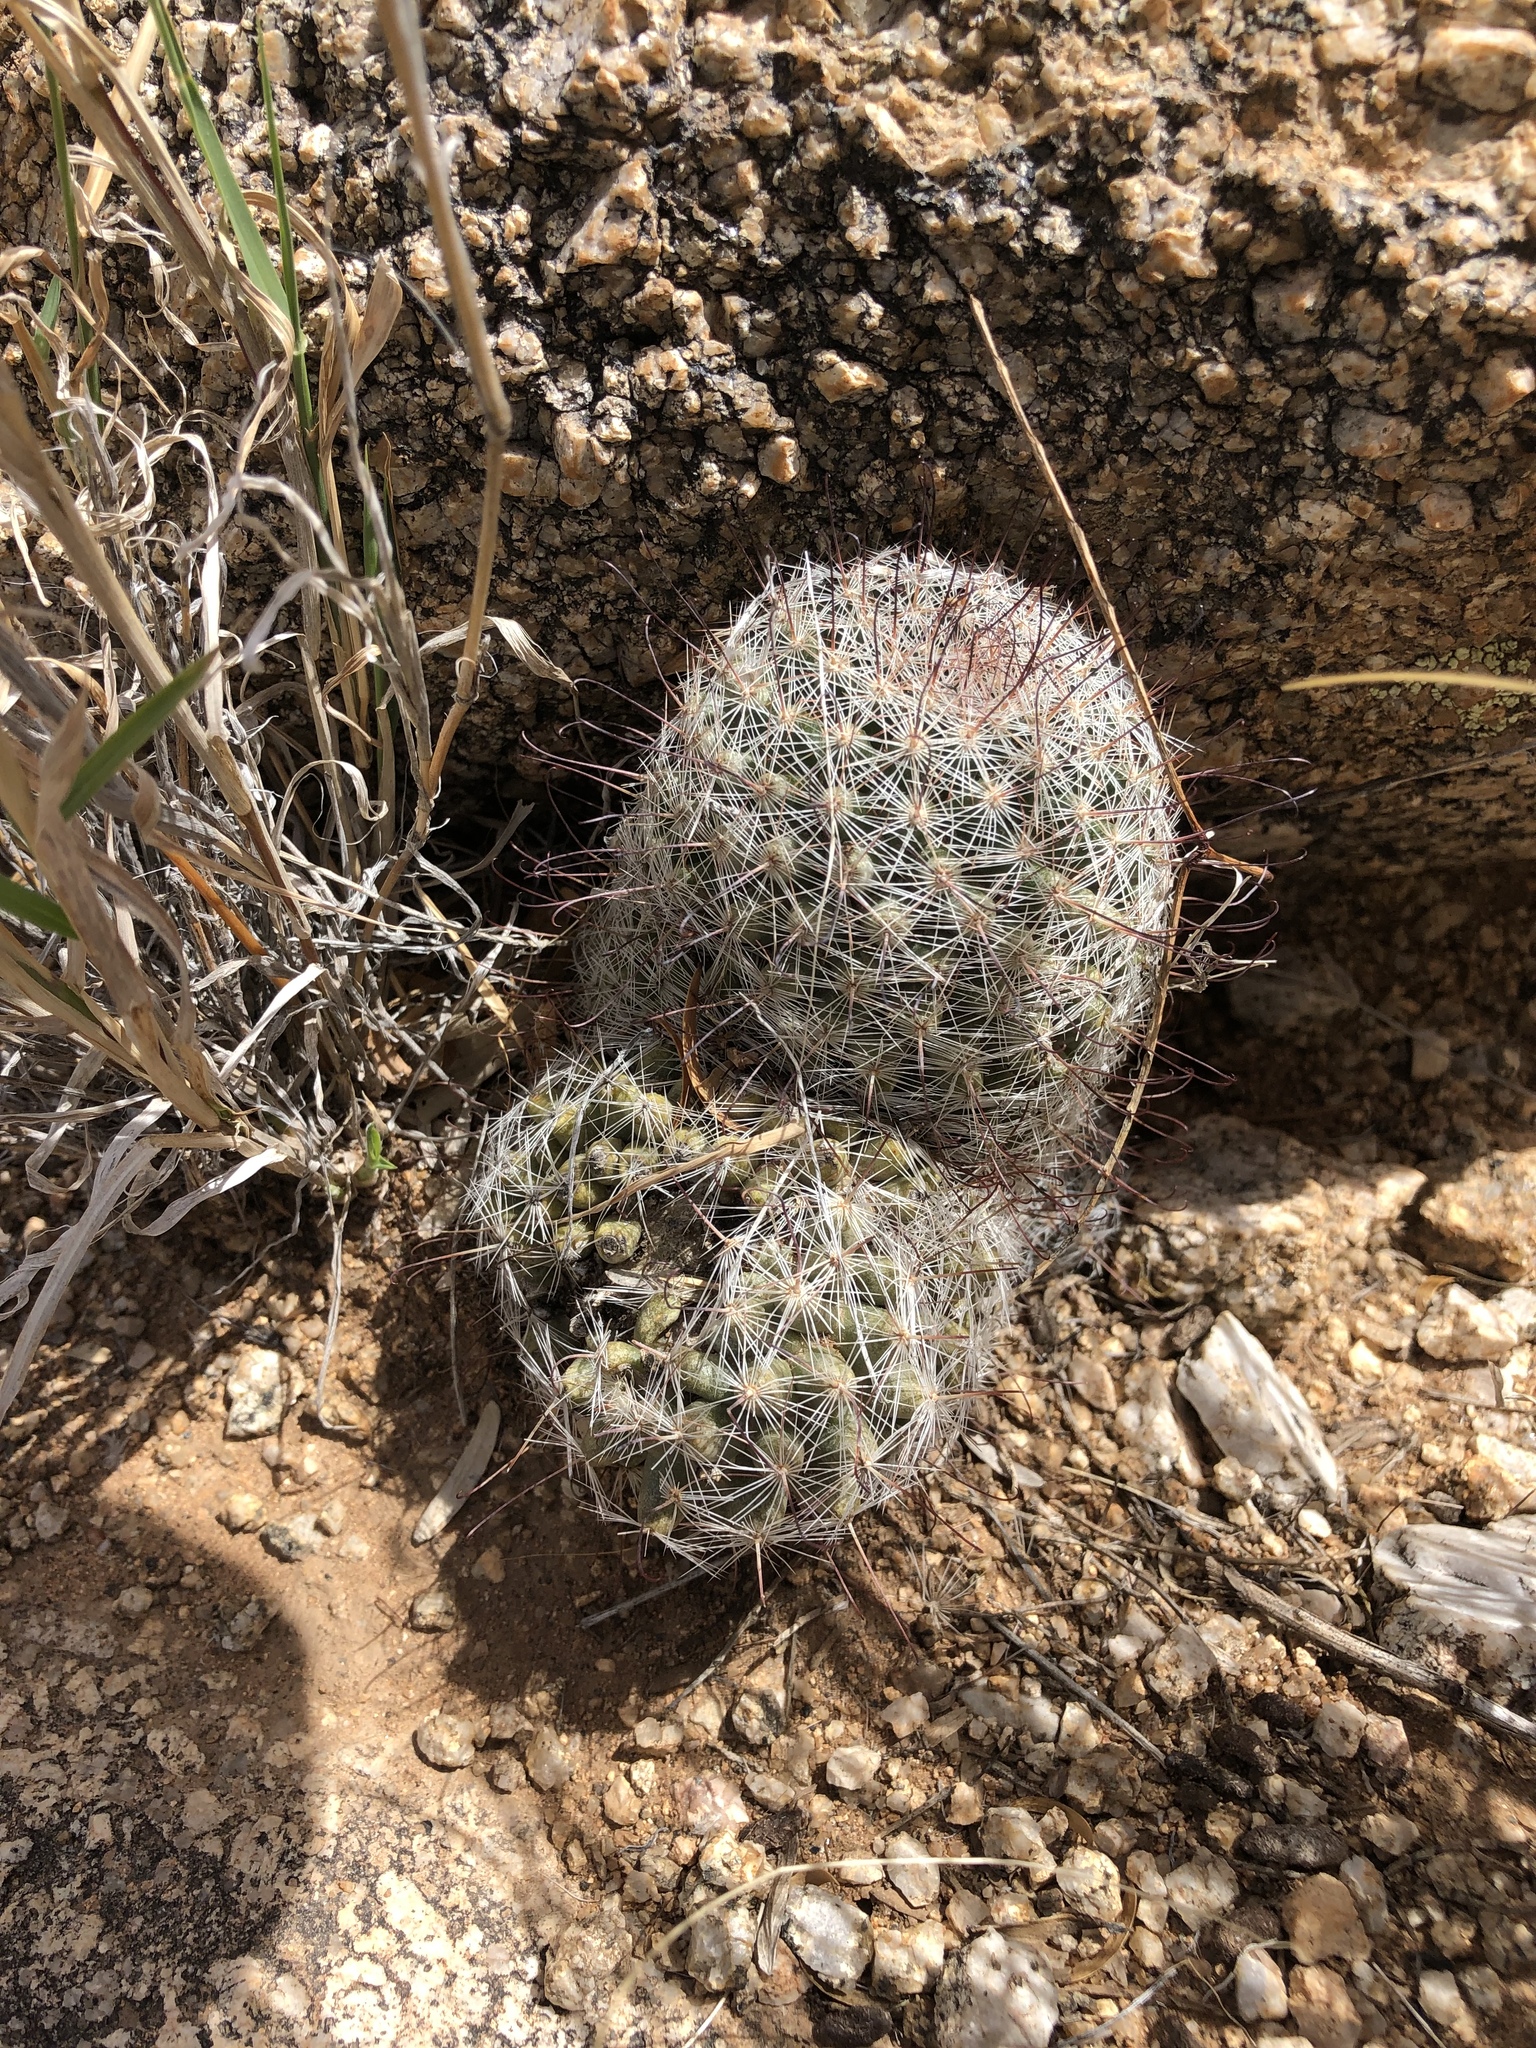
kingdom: Plantae
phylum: Tracheophyta
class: Magnoliopsida
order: Caryophyllales
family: Cactaceae
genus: Cochemiea
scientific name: Cochemiea grahamii
